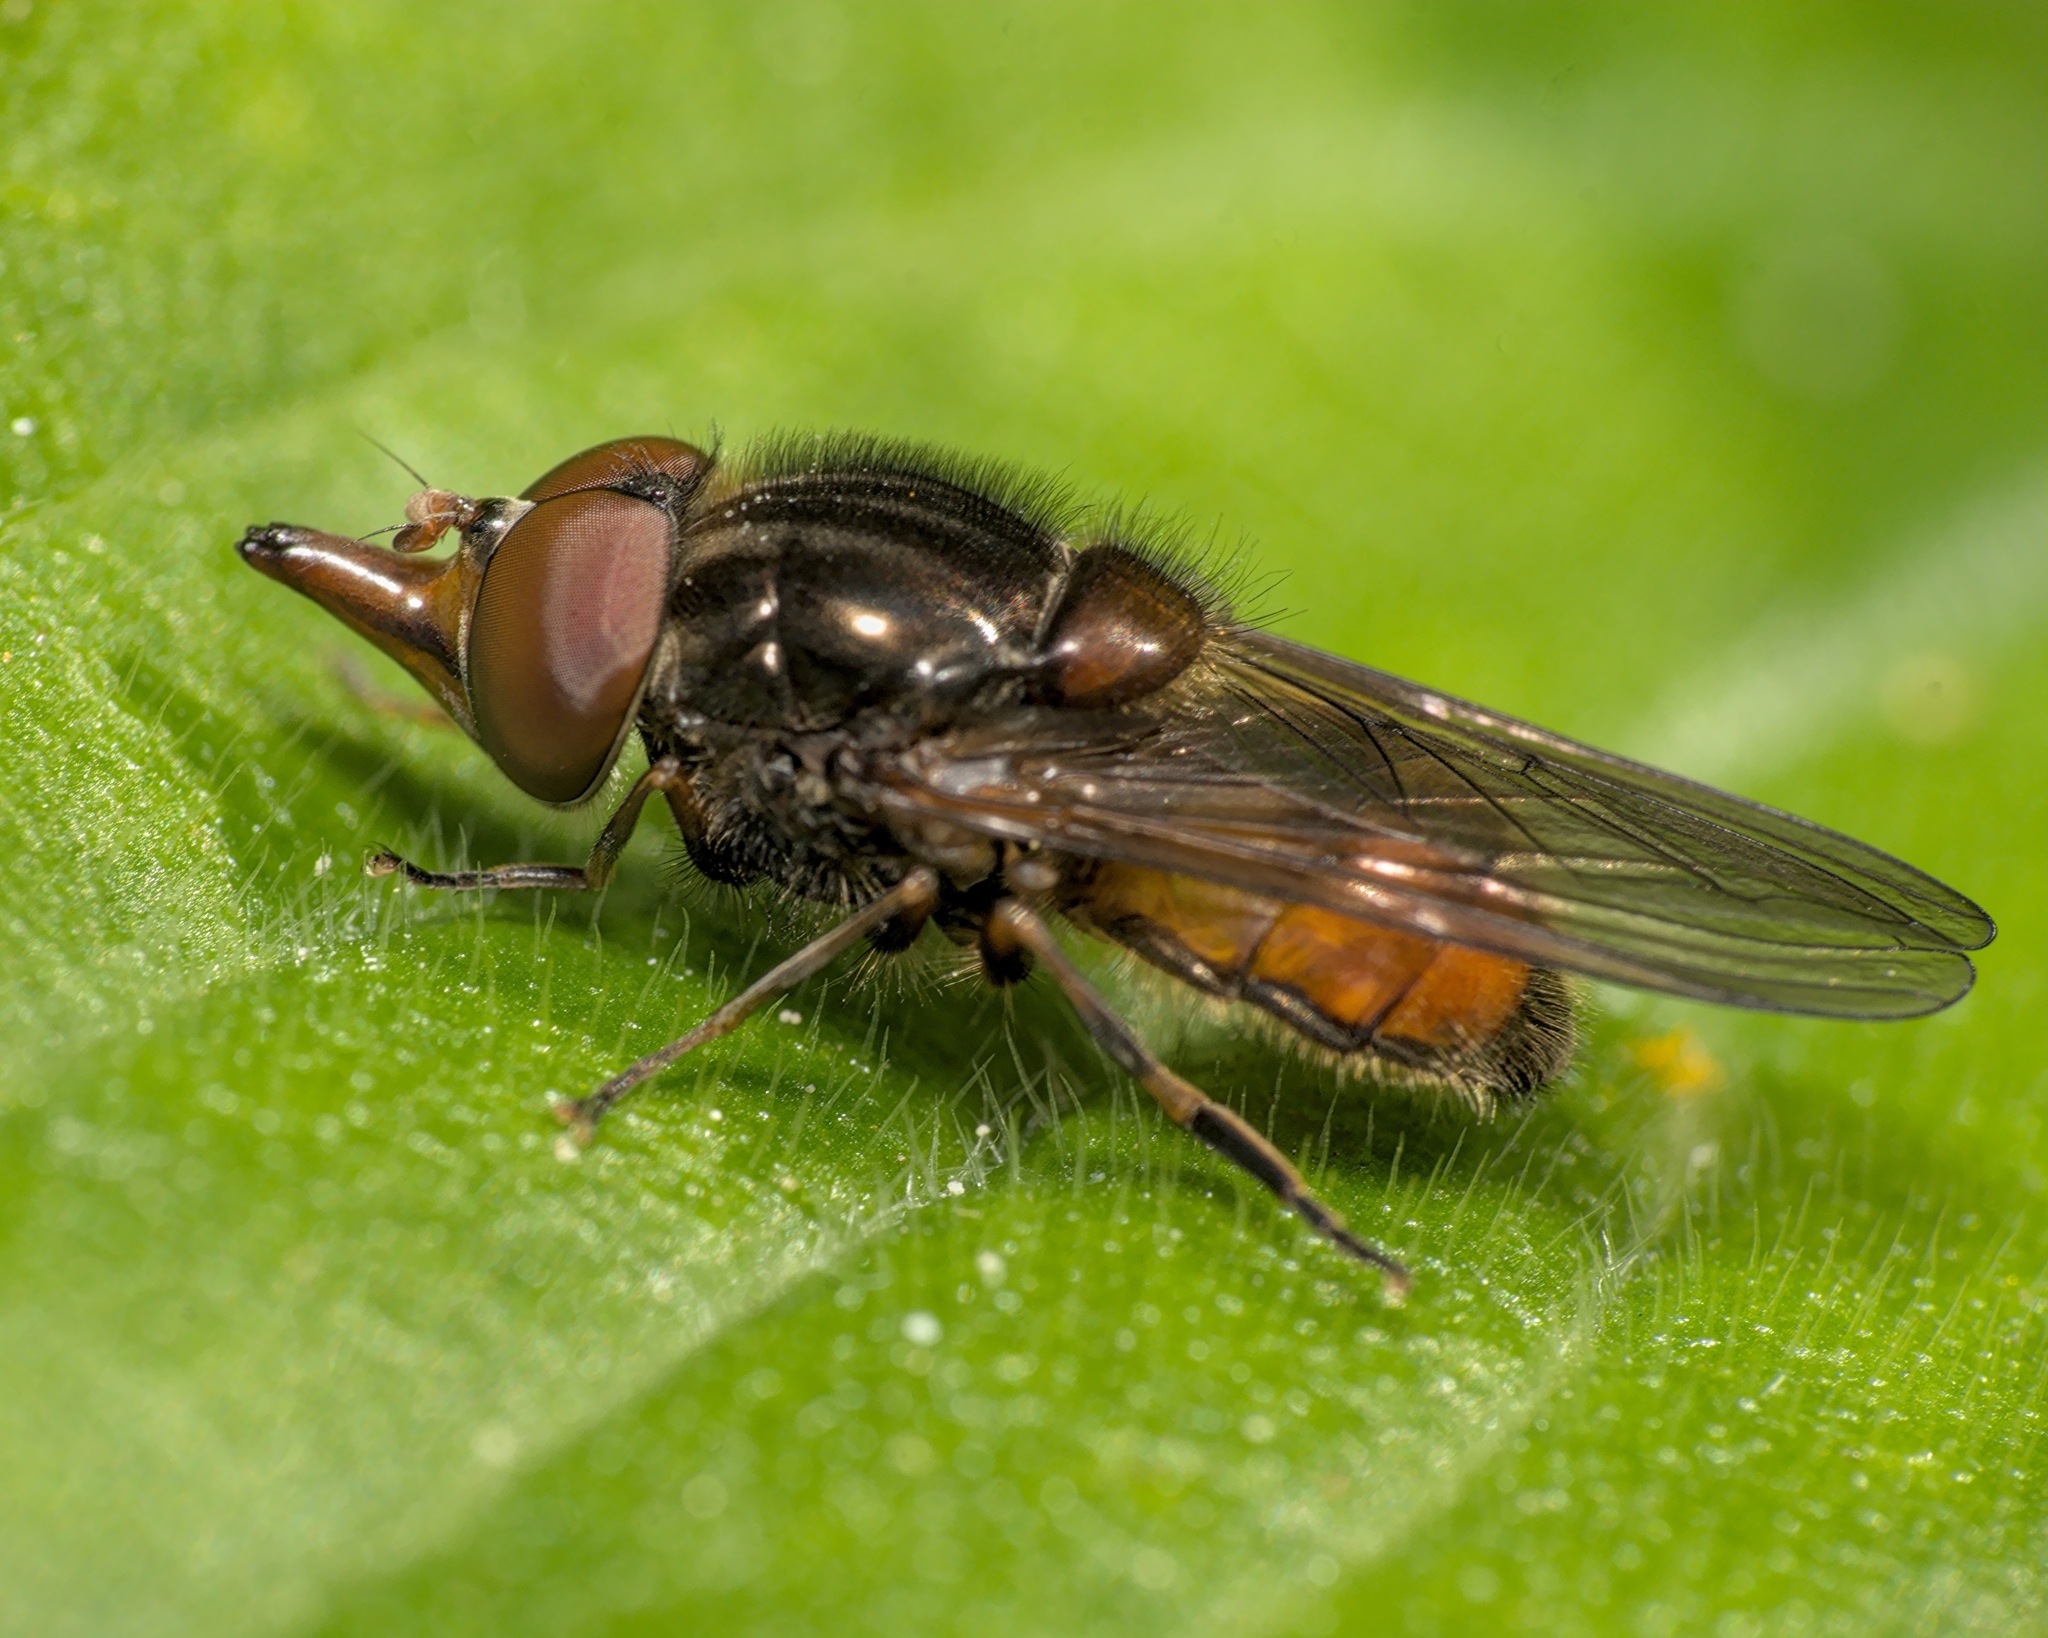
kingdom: Animalia
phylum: Arthropoda
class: Insecta
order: Diptera
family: Syrphidae
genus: Rhingia
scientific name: Rhingia campestris
